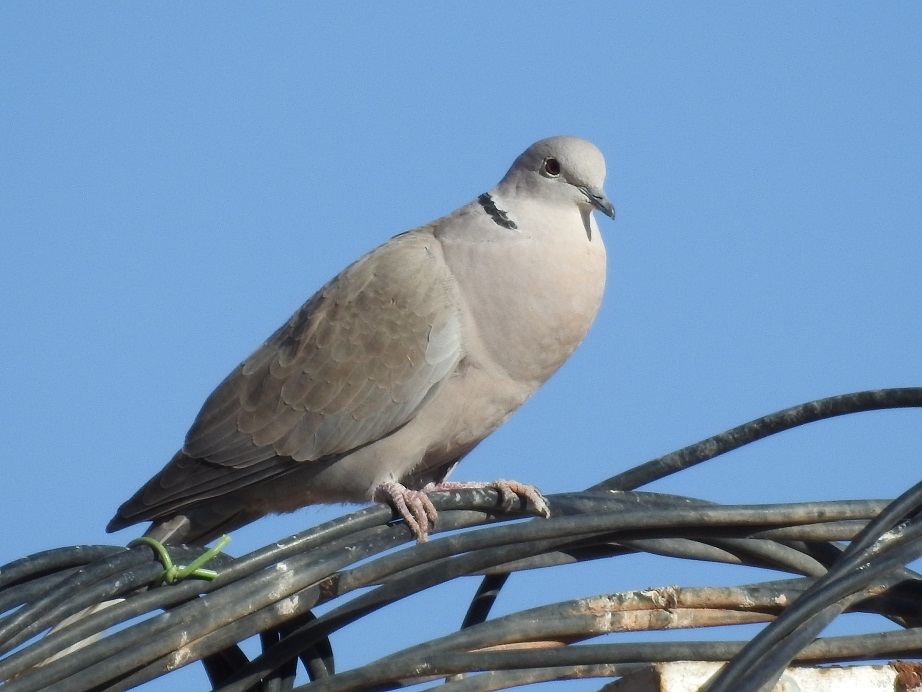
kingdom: Animalia
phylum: Chordata
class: Aves
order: Columbiformes
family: Columbidae
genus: Streptopelia
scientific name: Streptopelia decaocto
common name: Eurasian collared dove
